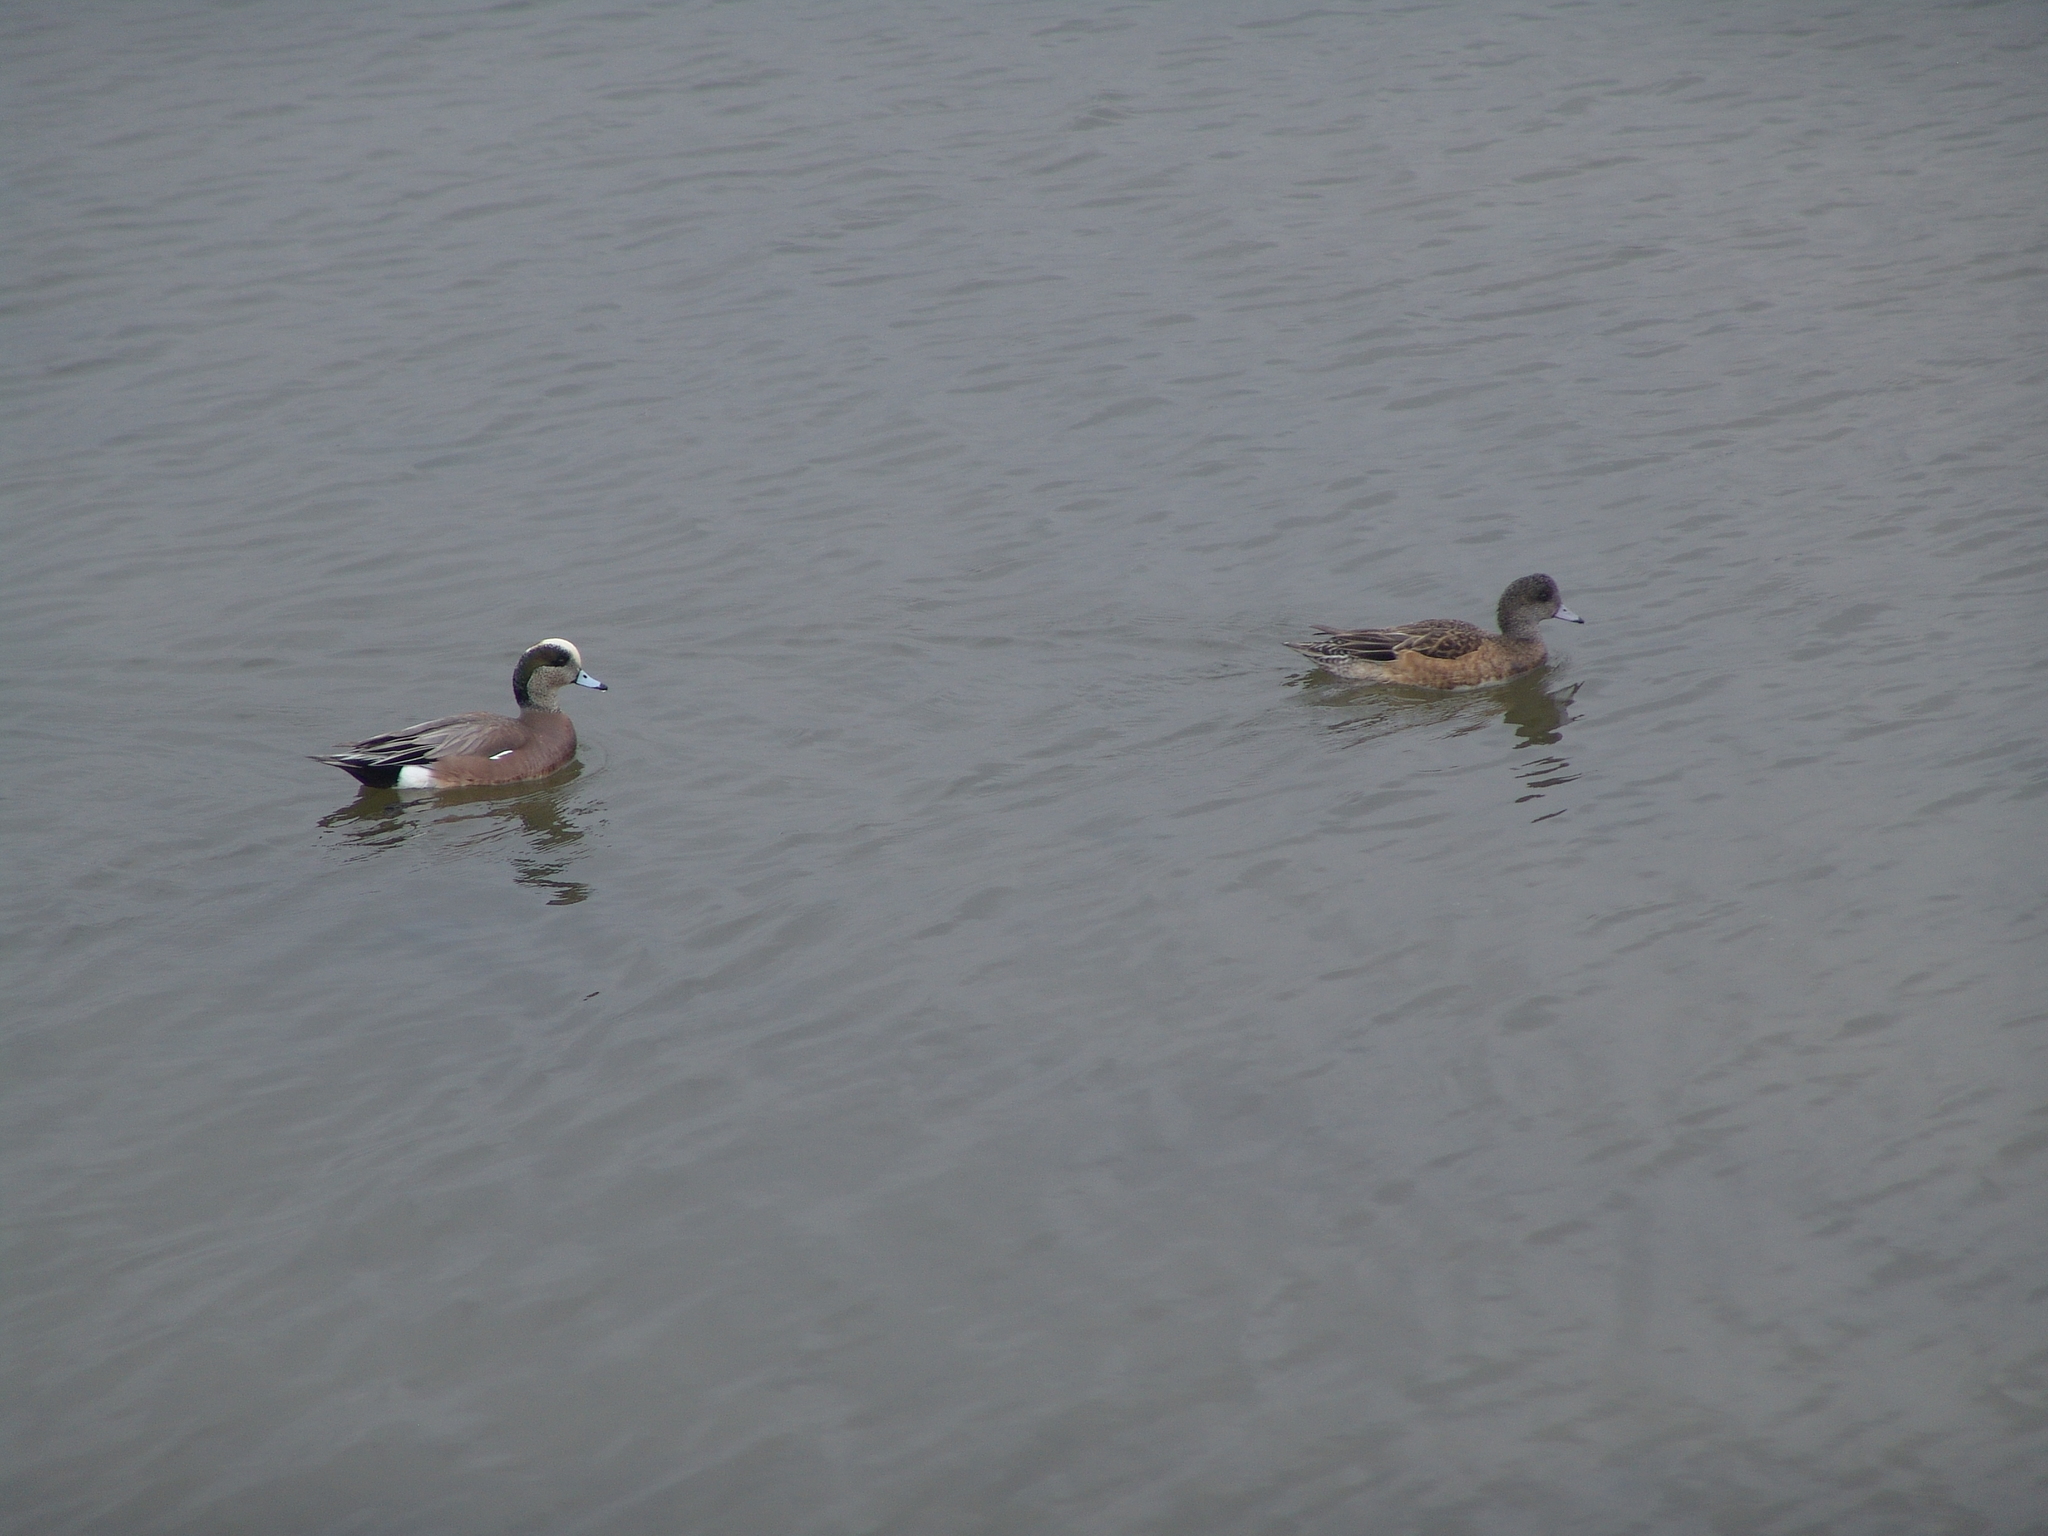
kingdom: Animalia
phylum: Chordata
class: Aves
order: Anseriformes
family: Anatidae
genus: Mareca
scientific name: Mareca americana
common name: American wigeon
